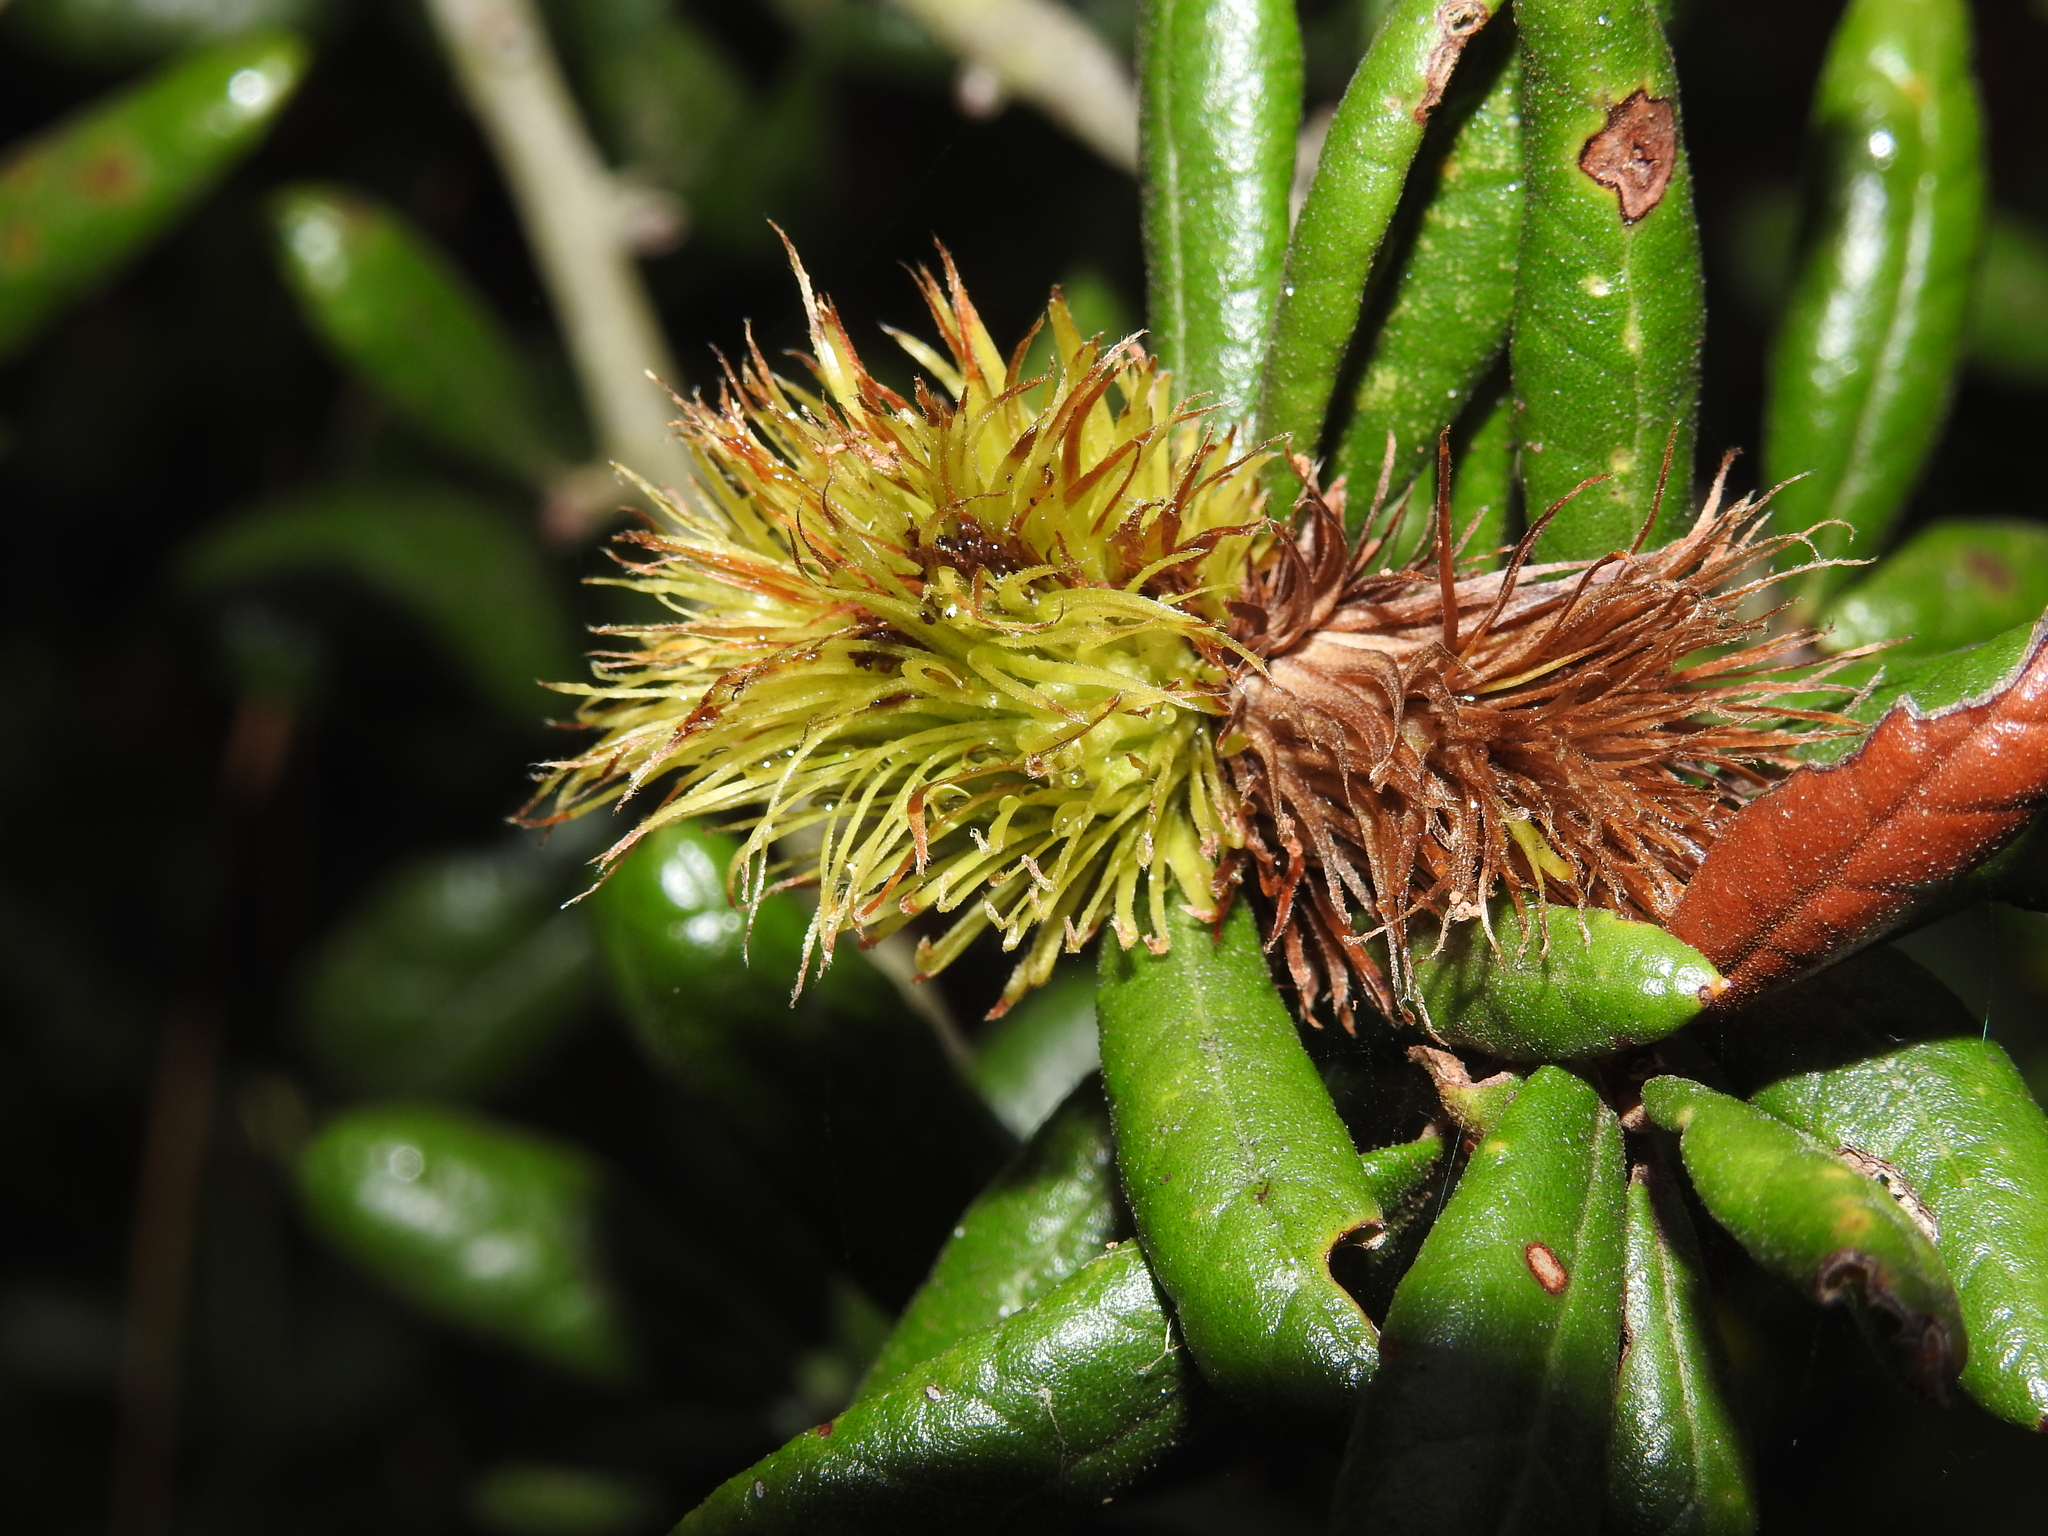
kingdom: Animalia
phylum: Arthropoda
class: Insecta
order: Hymenoptera
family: Cynipidae
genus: Andricus
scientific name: Andricus quercusfoliatus
